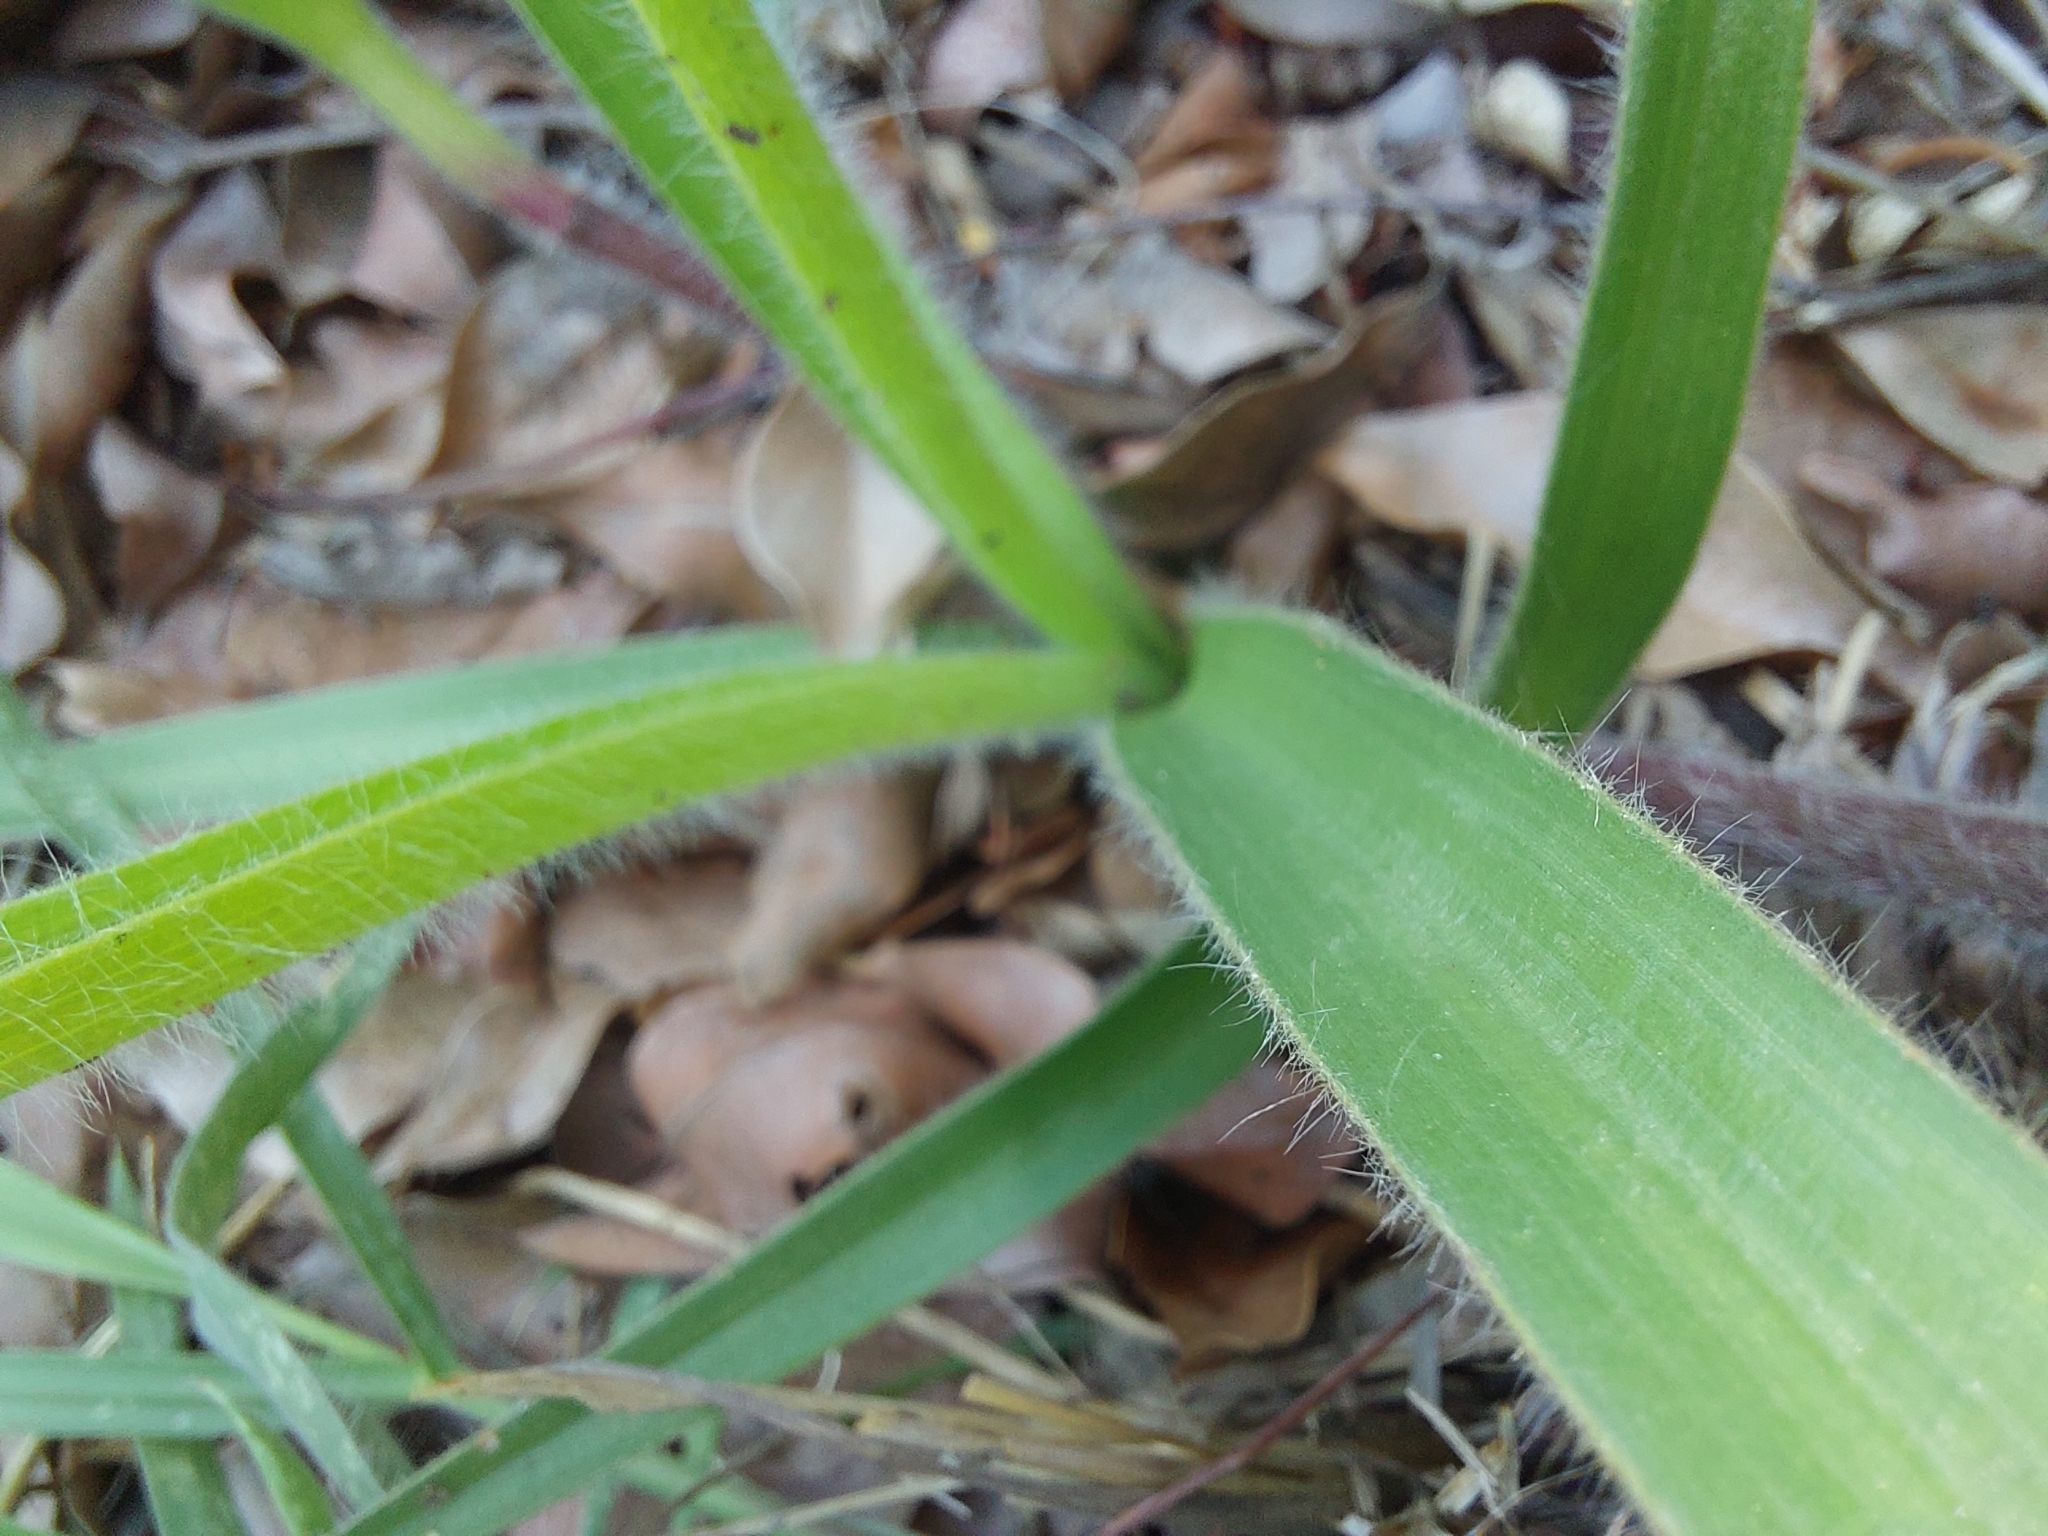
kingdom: Plantae
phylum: Tracheophyta
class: Liliopsida
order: Commelinales
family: Commelinaceae
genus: Cyanotis
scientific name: Cyanotis speciosa
